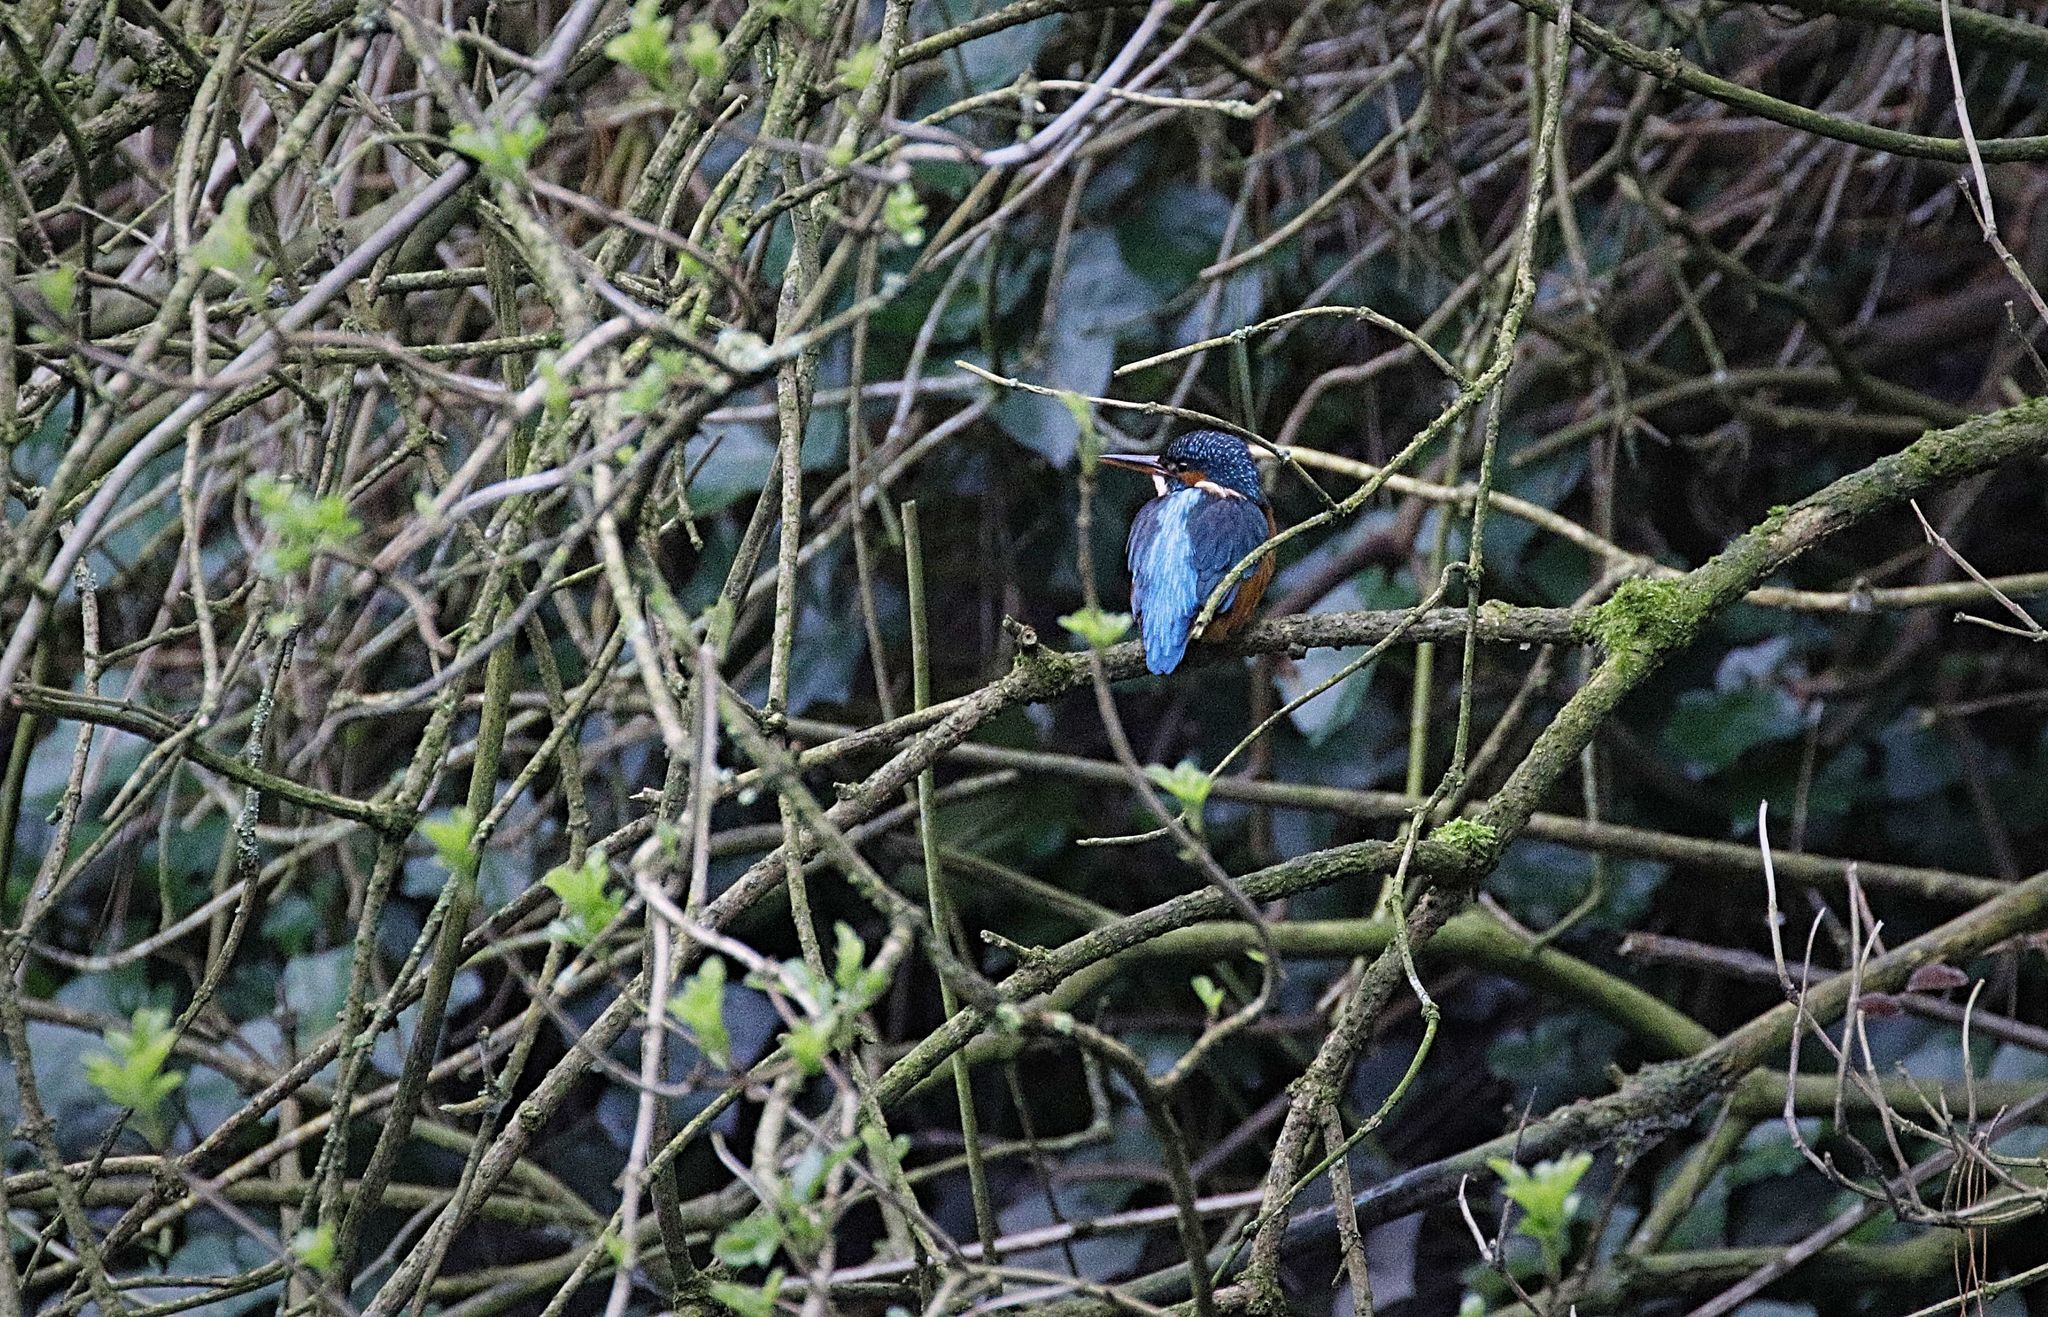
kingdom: Animalia
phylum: Chordata
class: Aves
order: Coraciiformes
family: Alcedinidae
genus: Alcedo
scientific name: Alcedo atthis
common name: Common kingfisher
